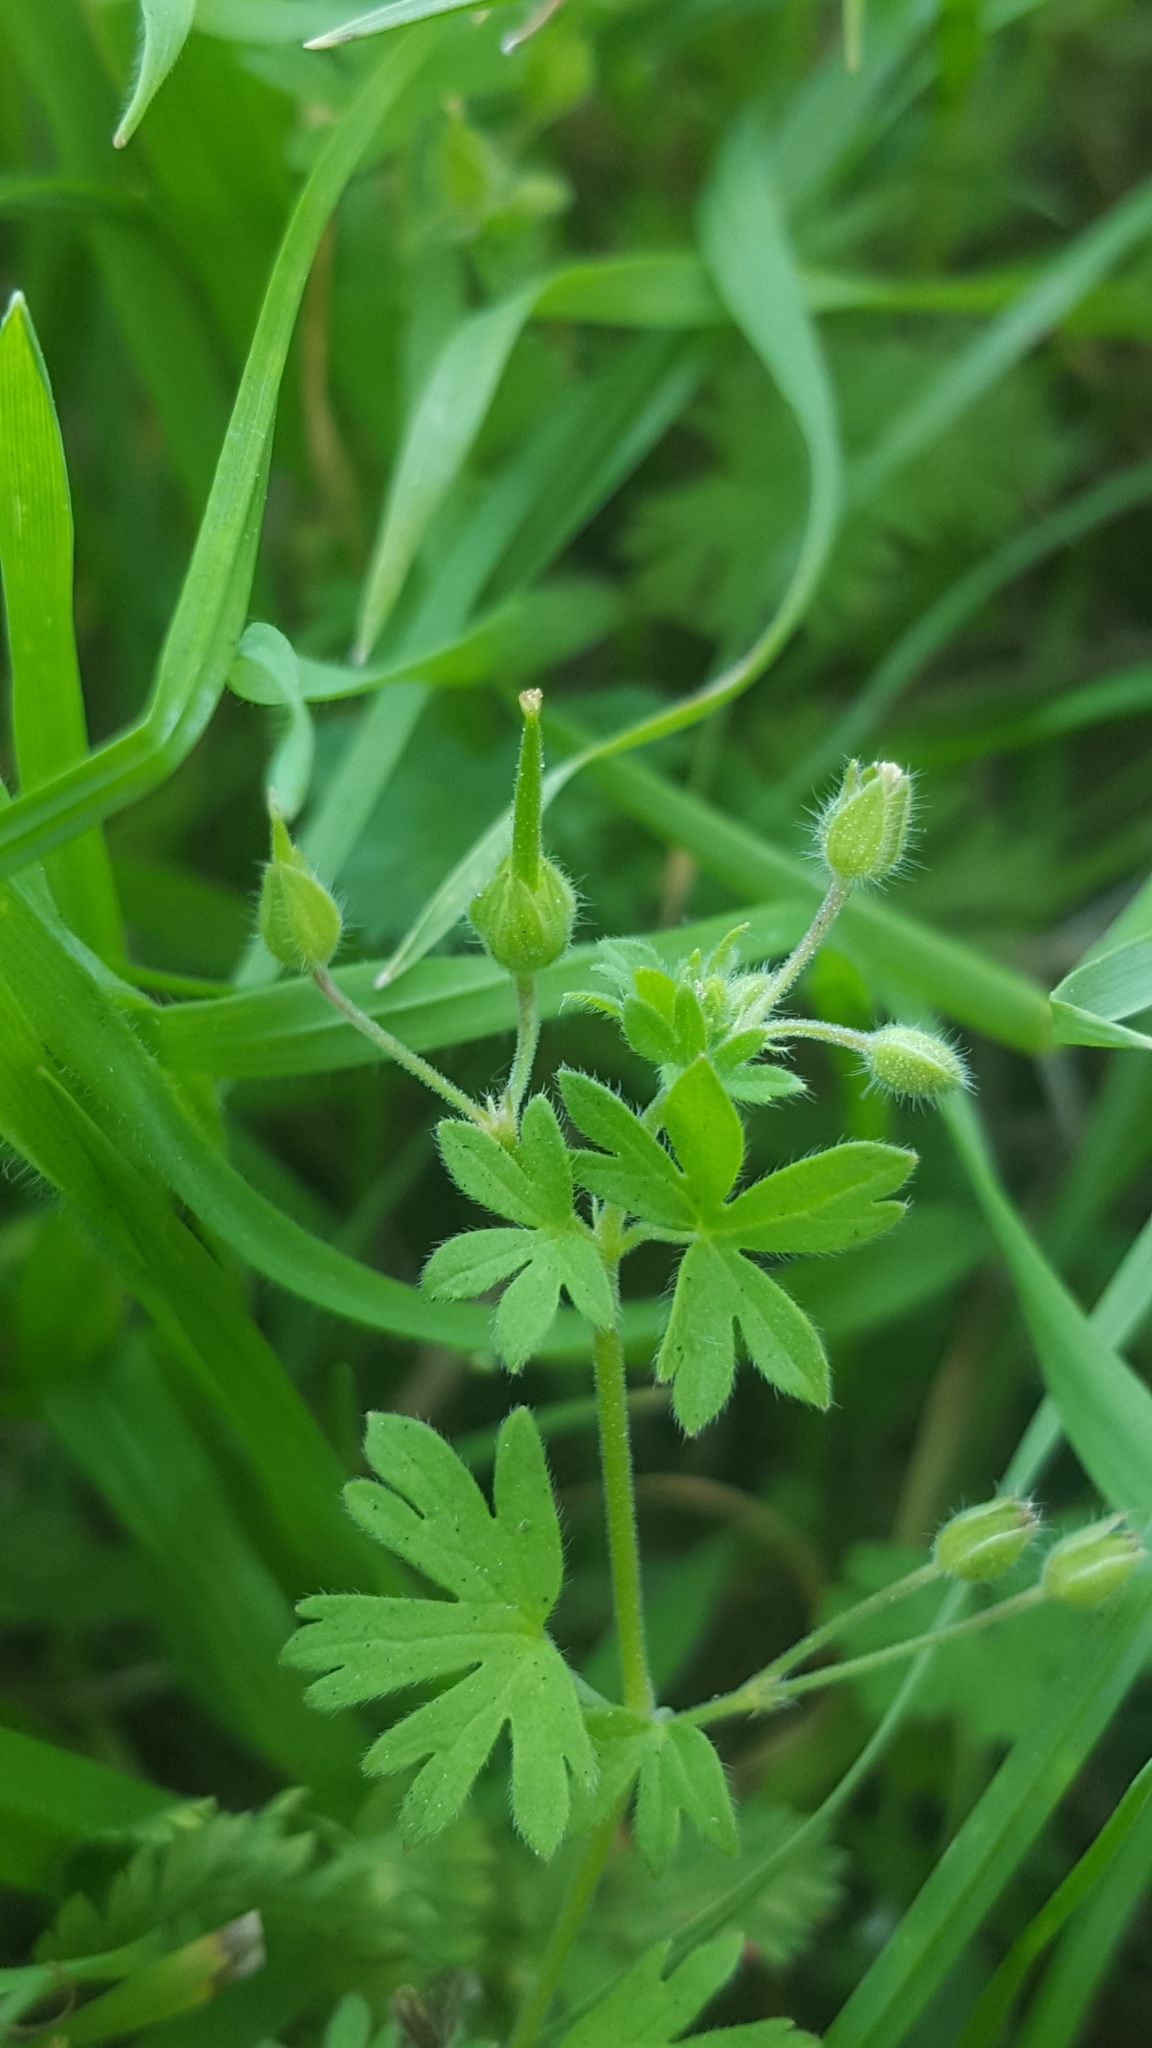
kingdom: Plantae
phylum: Tracheophyta
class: Magnoliopsida
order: Geraniales
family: Geraniaceae
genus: Geranium
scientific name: Geranium pusillum
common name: Small geranium
